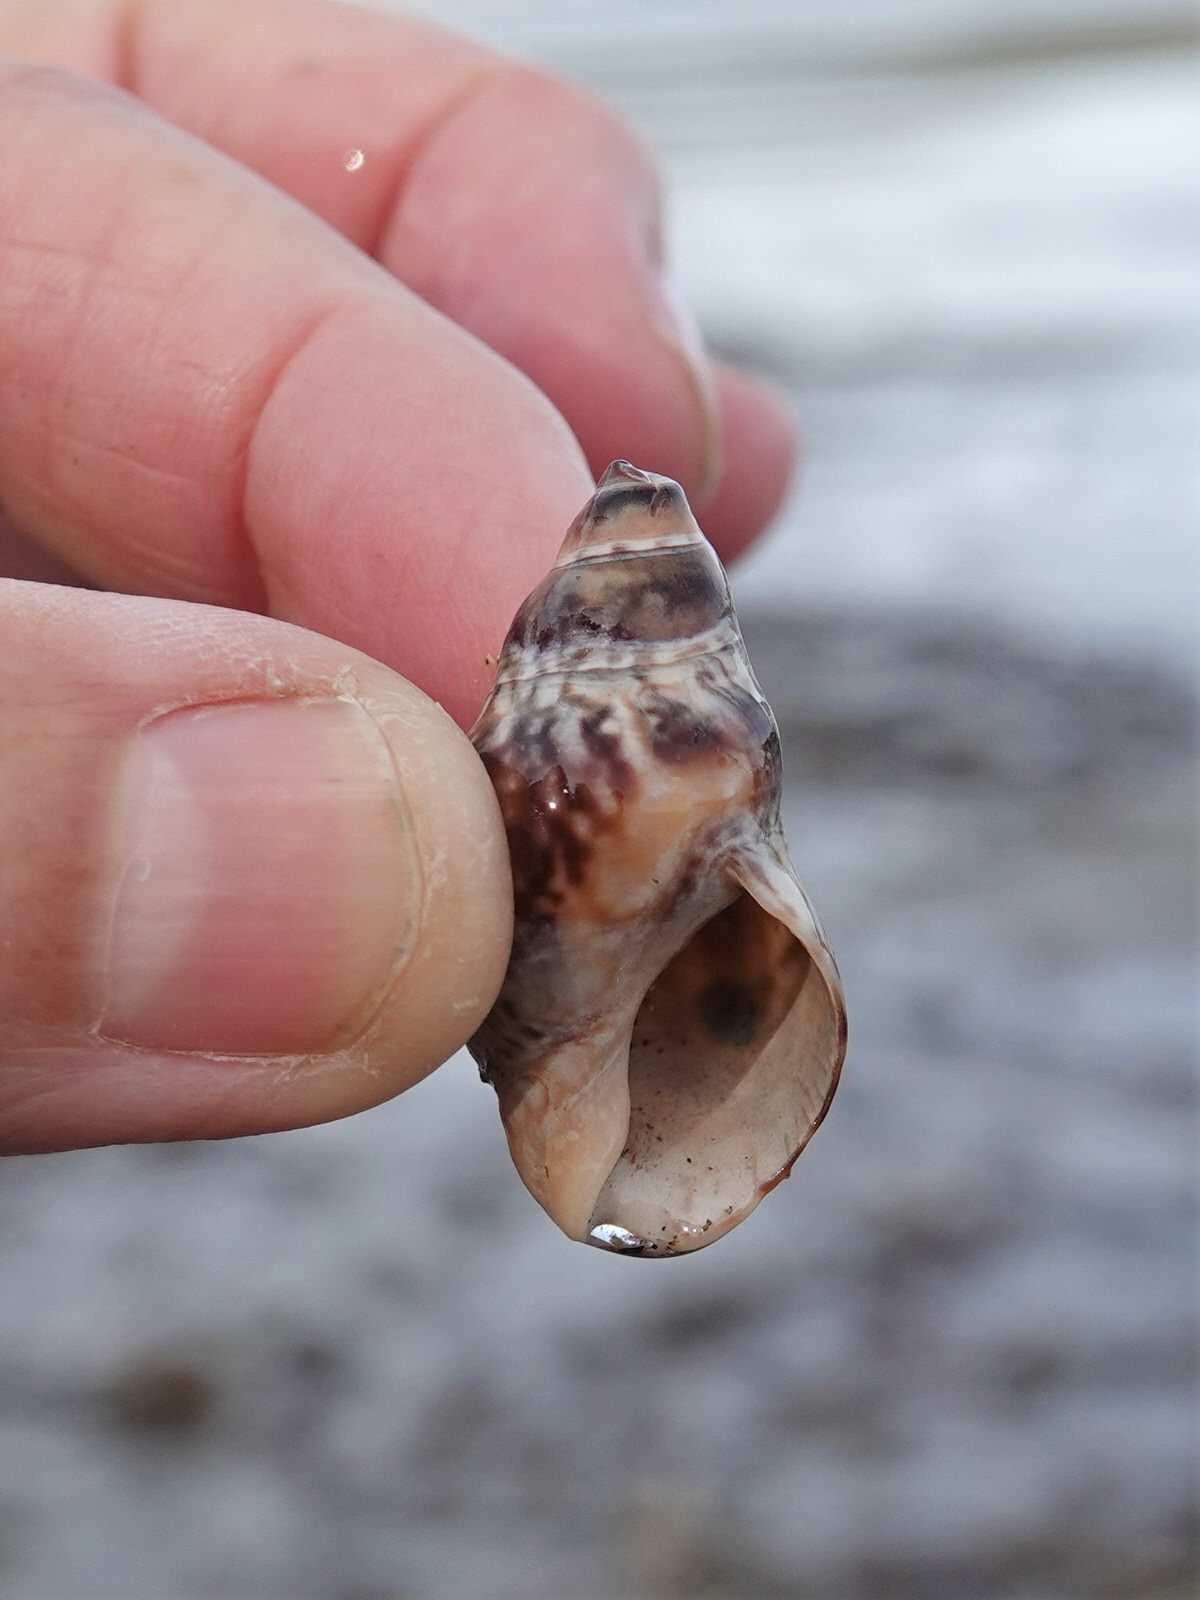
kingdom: Animalia
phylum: Mollusca
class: Gastropoda
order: Neogastropoda
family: Cominellidae
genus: Cominella
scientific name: Cominella maculosa
